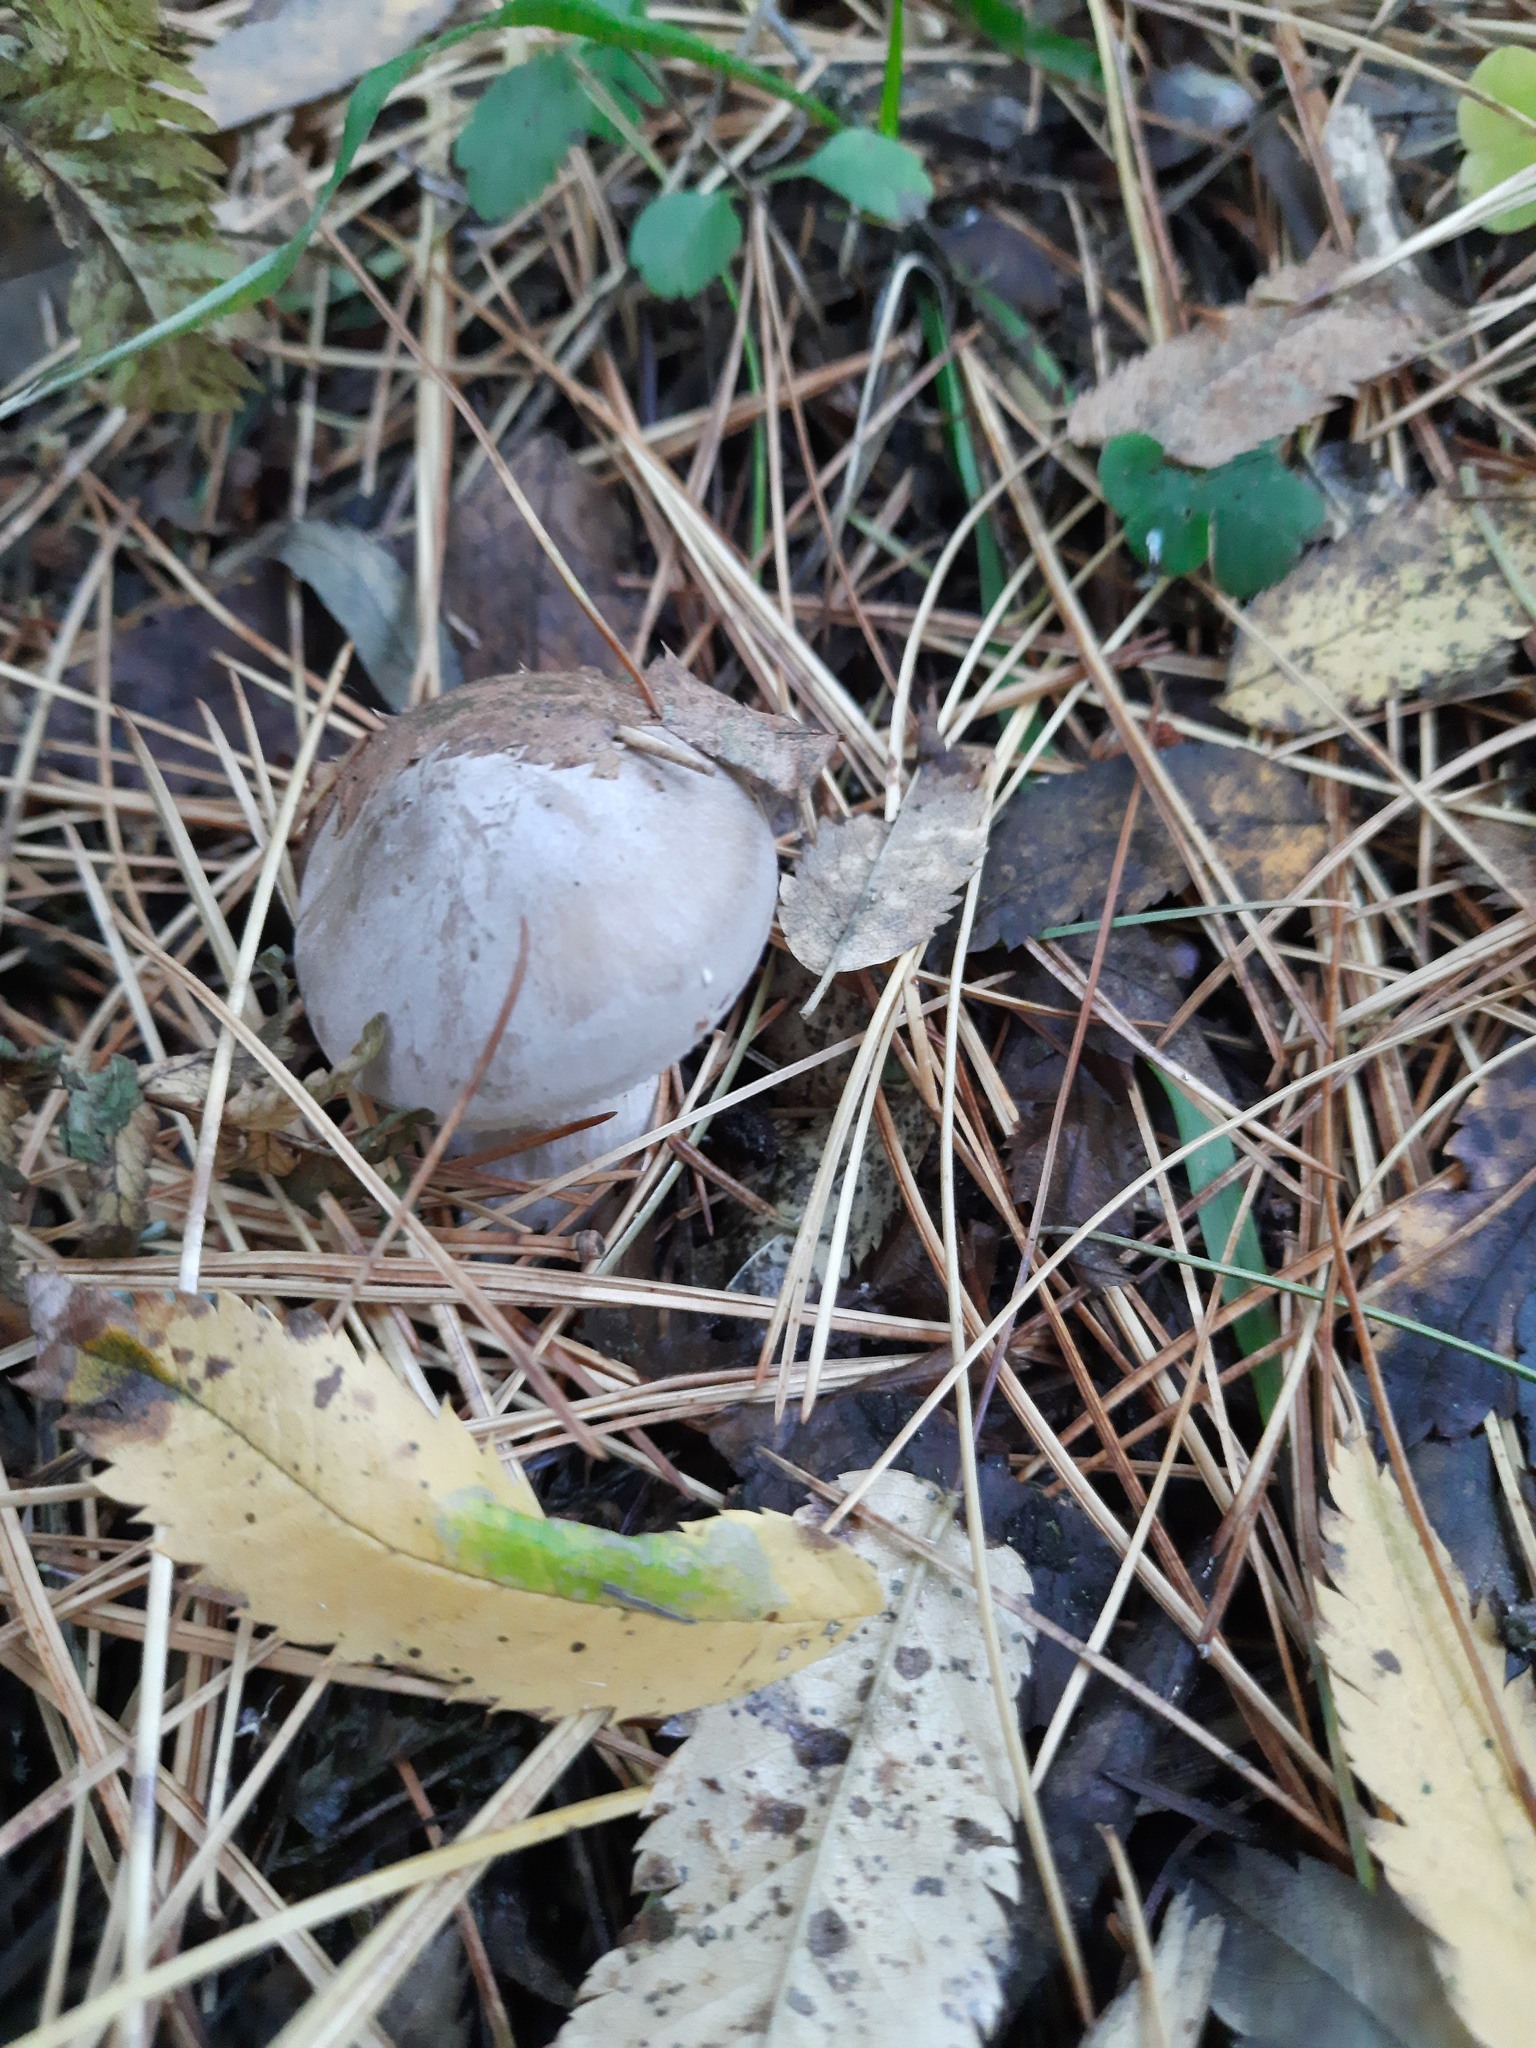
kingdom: Fungi
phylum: Basidiomycota
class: Agaricomycetes
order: Agaricales
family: Tricholomataceae
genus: Clitocybe
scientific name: Clitocybe nebularis
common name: Clouded agaric
